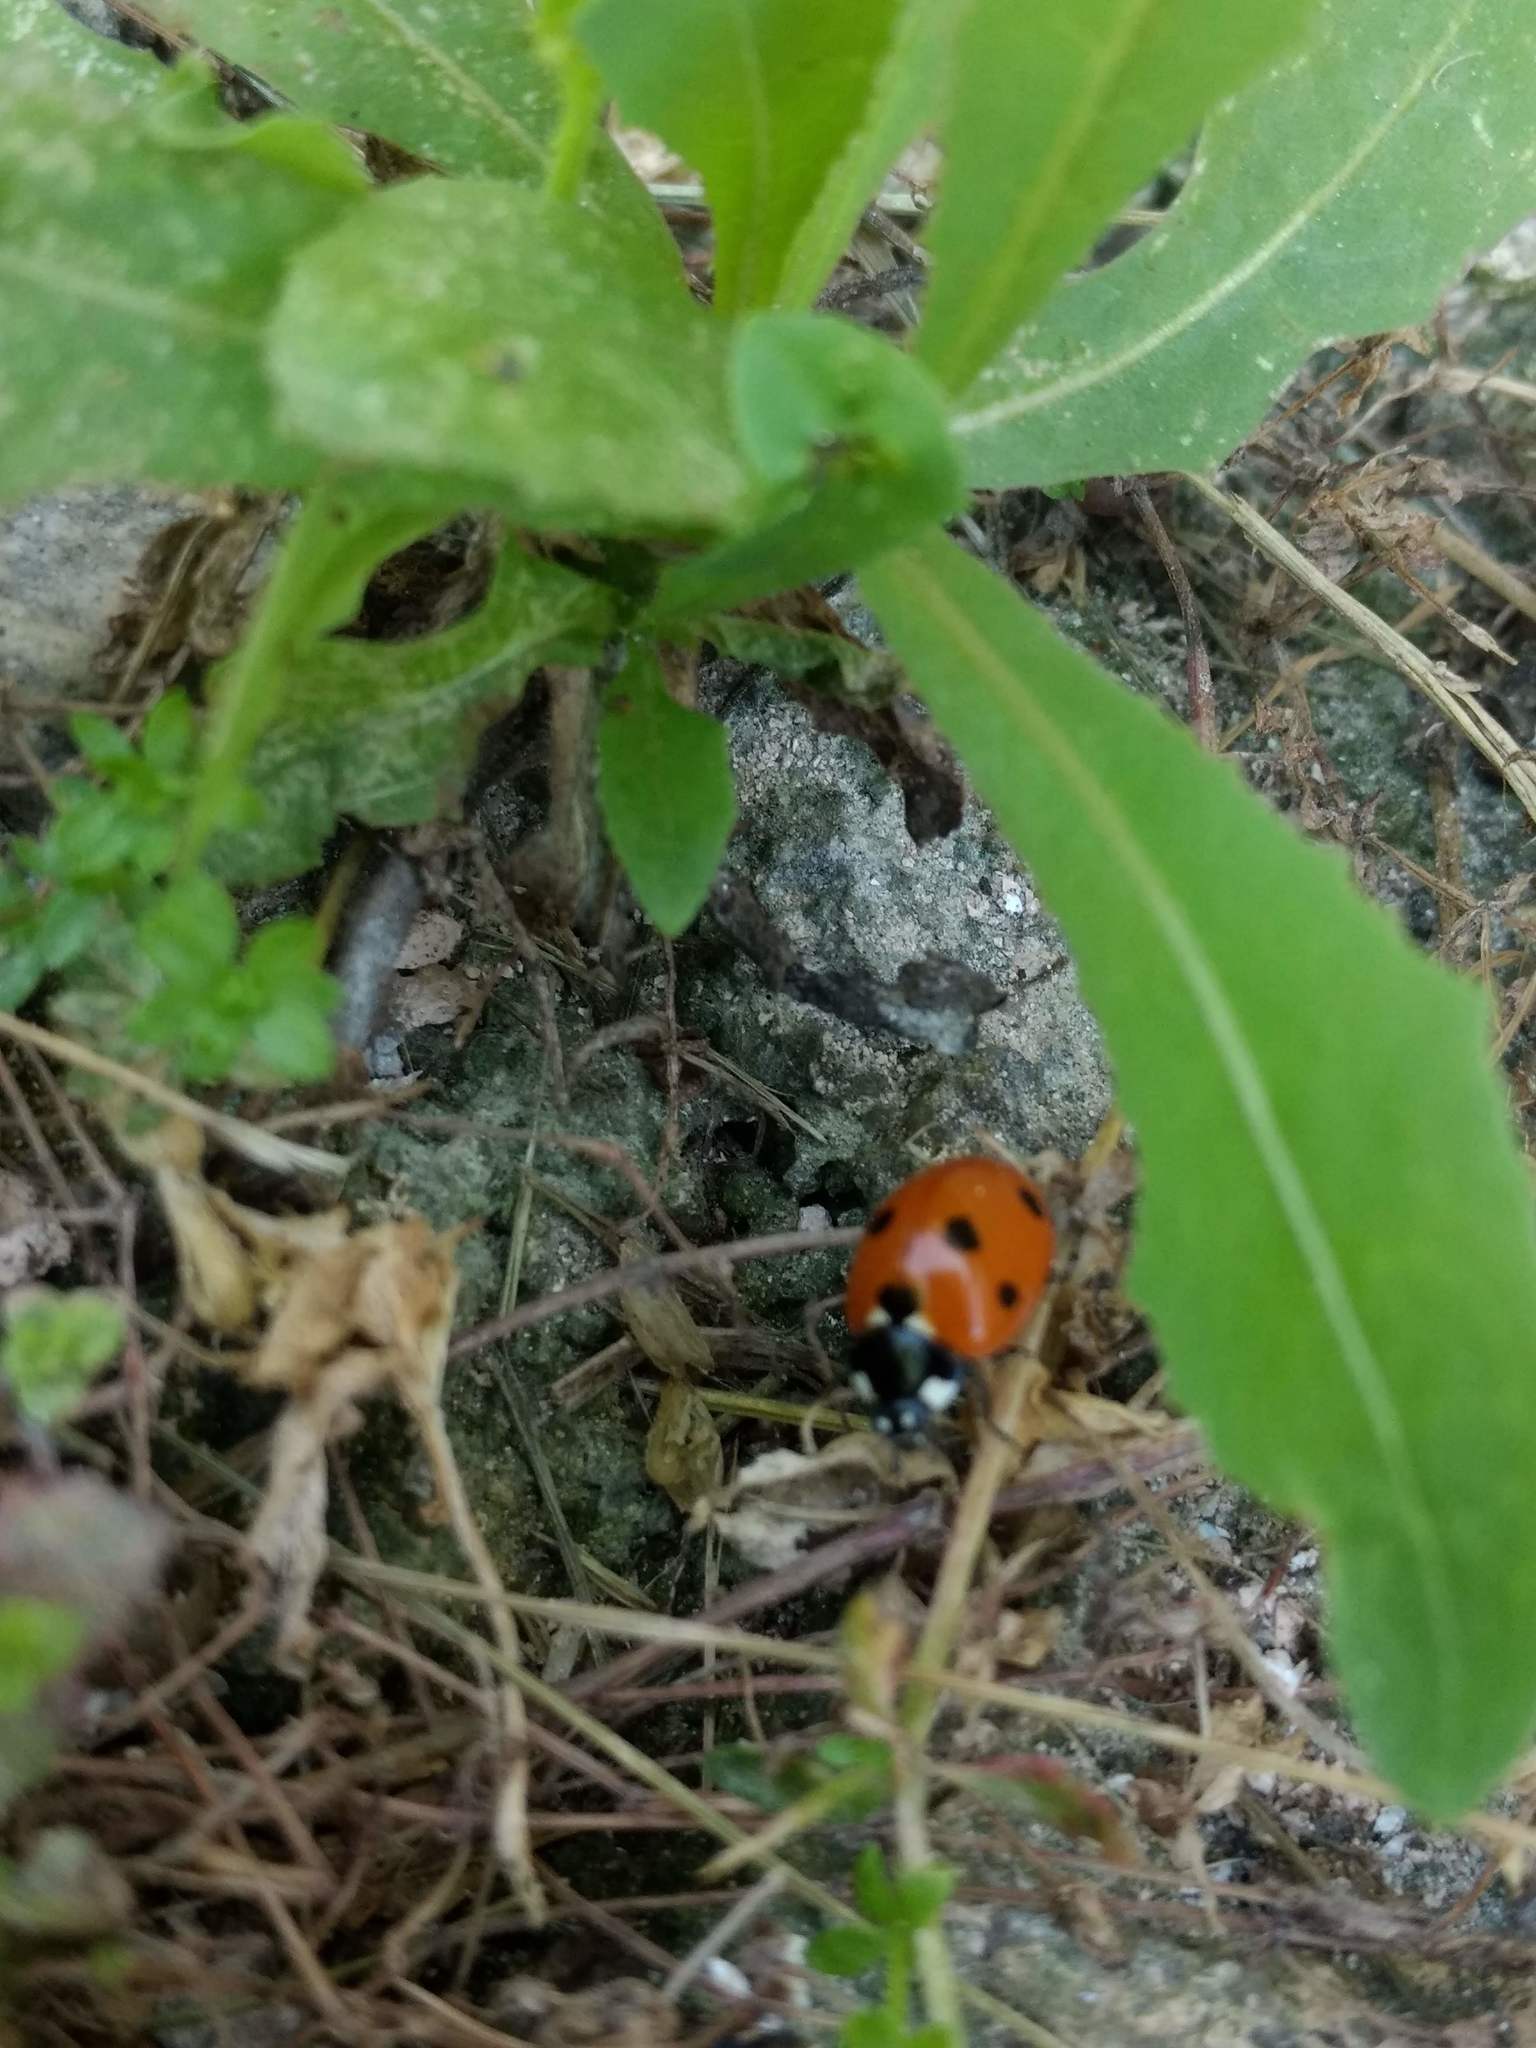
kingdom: Animalia
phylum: Arthropoda
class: Insecta
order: Coleoptera
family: Coccinellidae
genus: Coccinella
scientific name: Coccinella septempunctata
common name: Sevenspotted lady beetle
